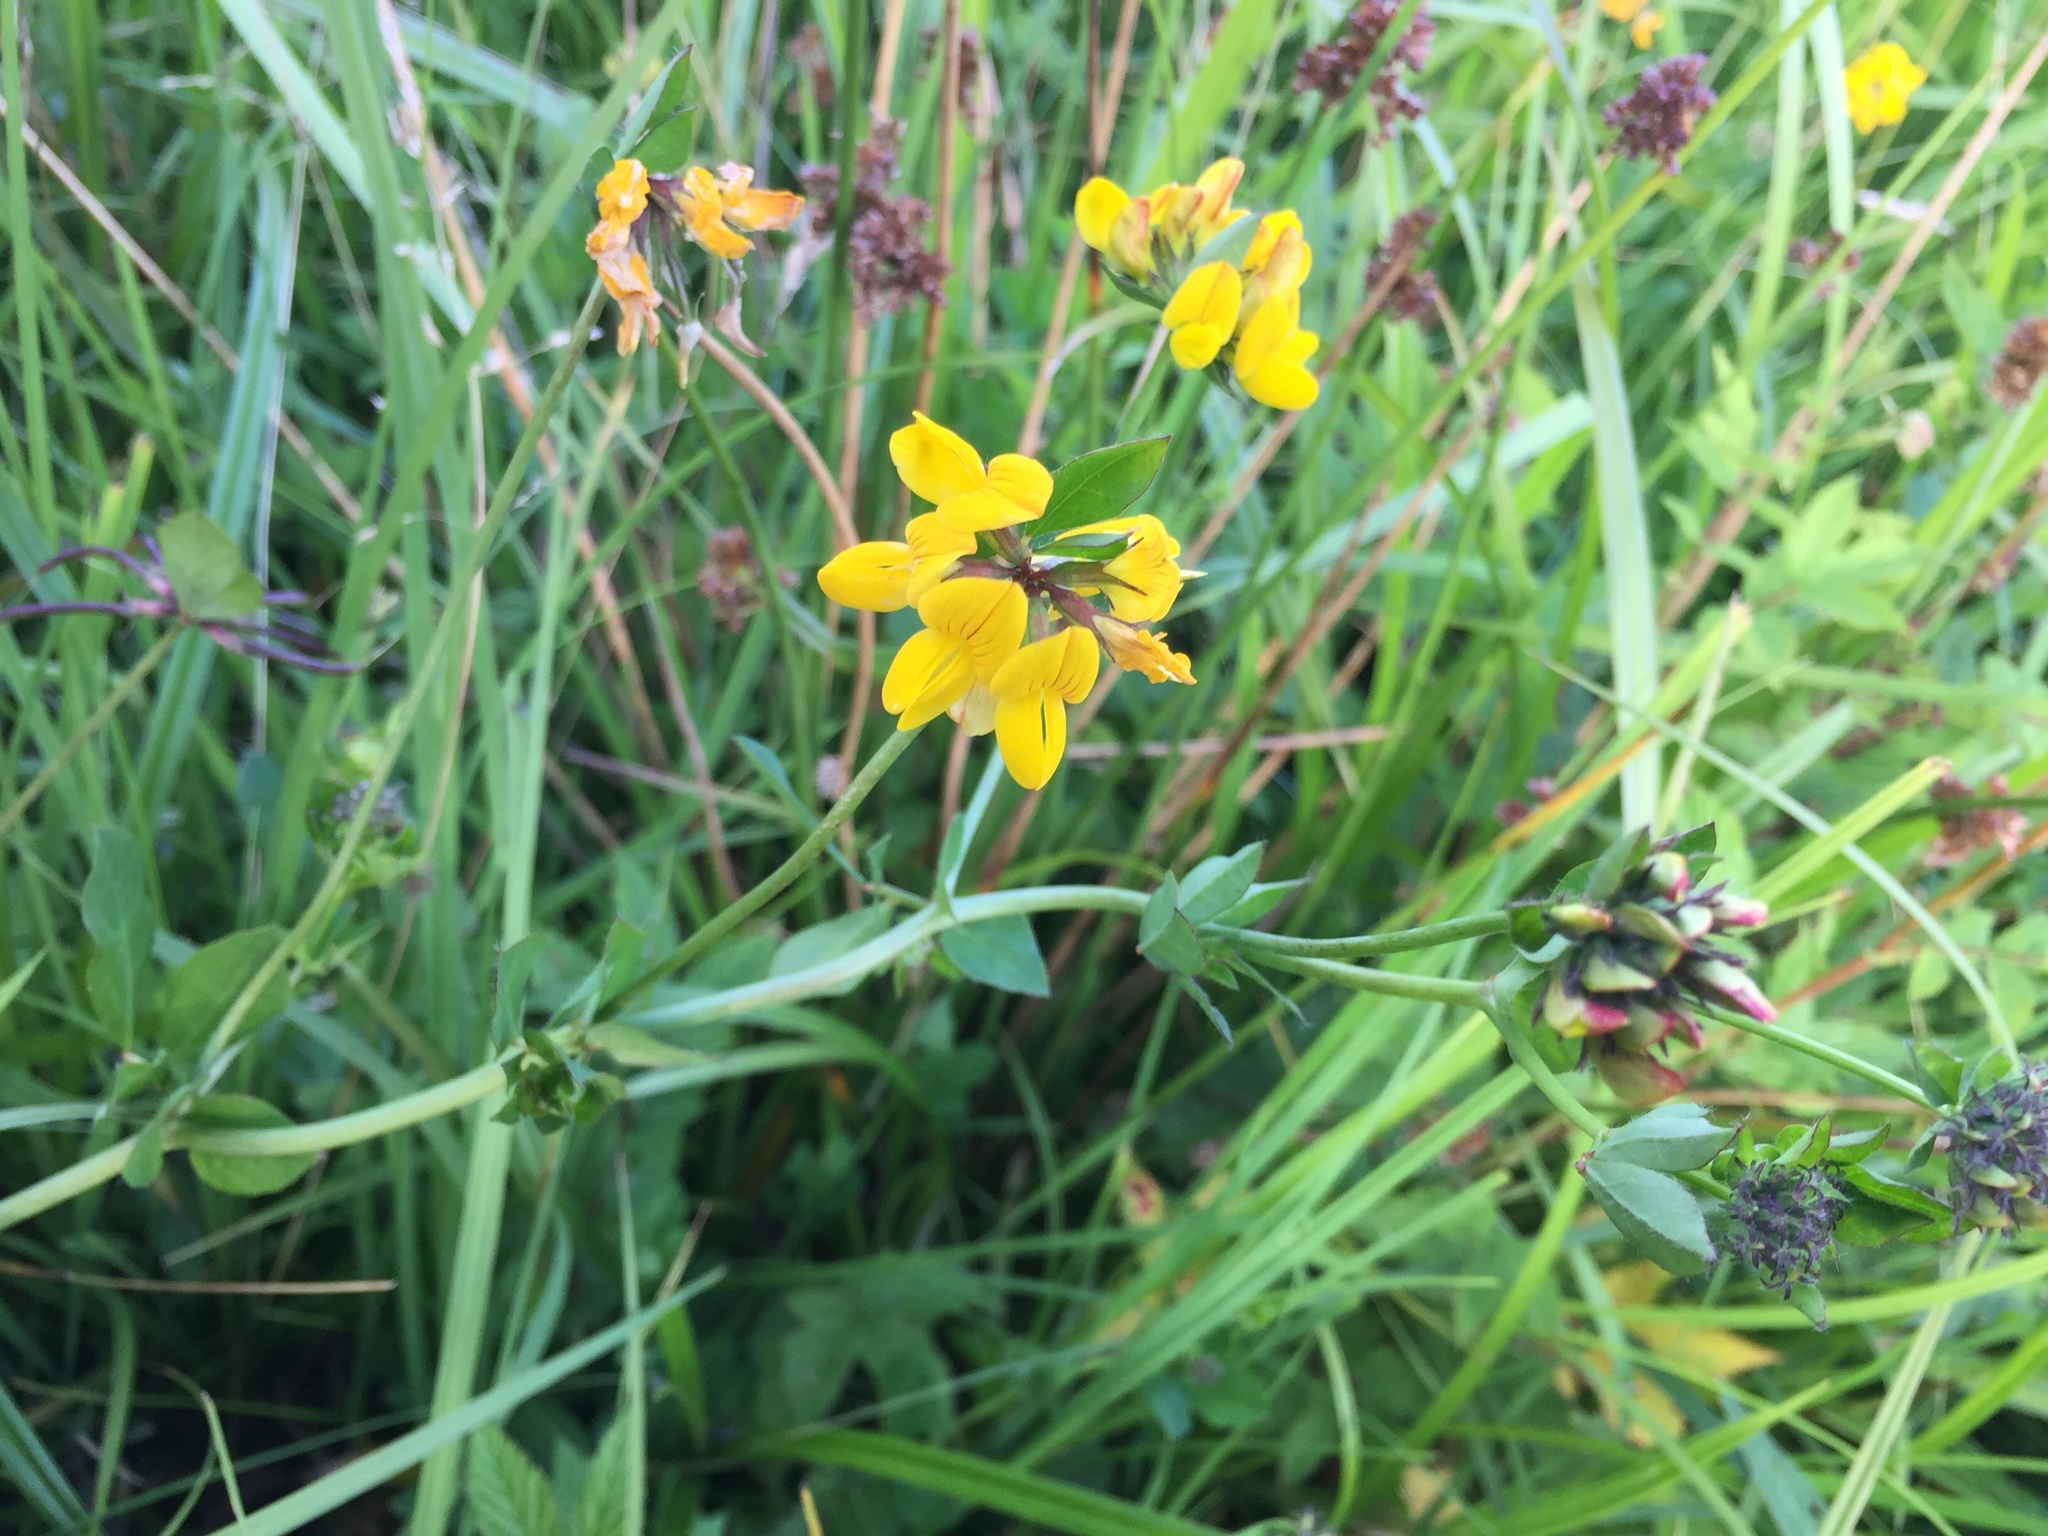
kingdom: Plantae
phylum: Tracheophyta
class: Magnoliopsida
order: Fabales
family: Fabaceae
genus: Lotus
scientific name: Lotus pedunculatus
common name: Greater birdsfoot-trefoil
